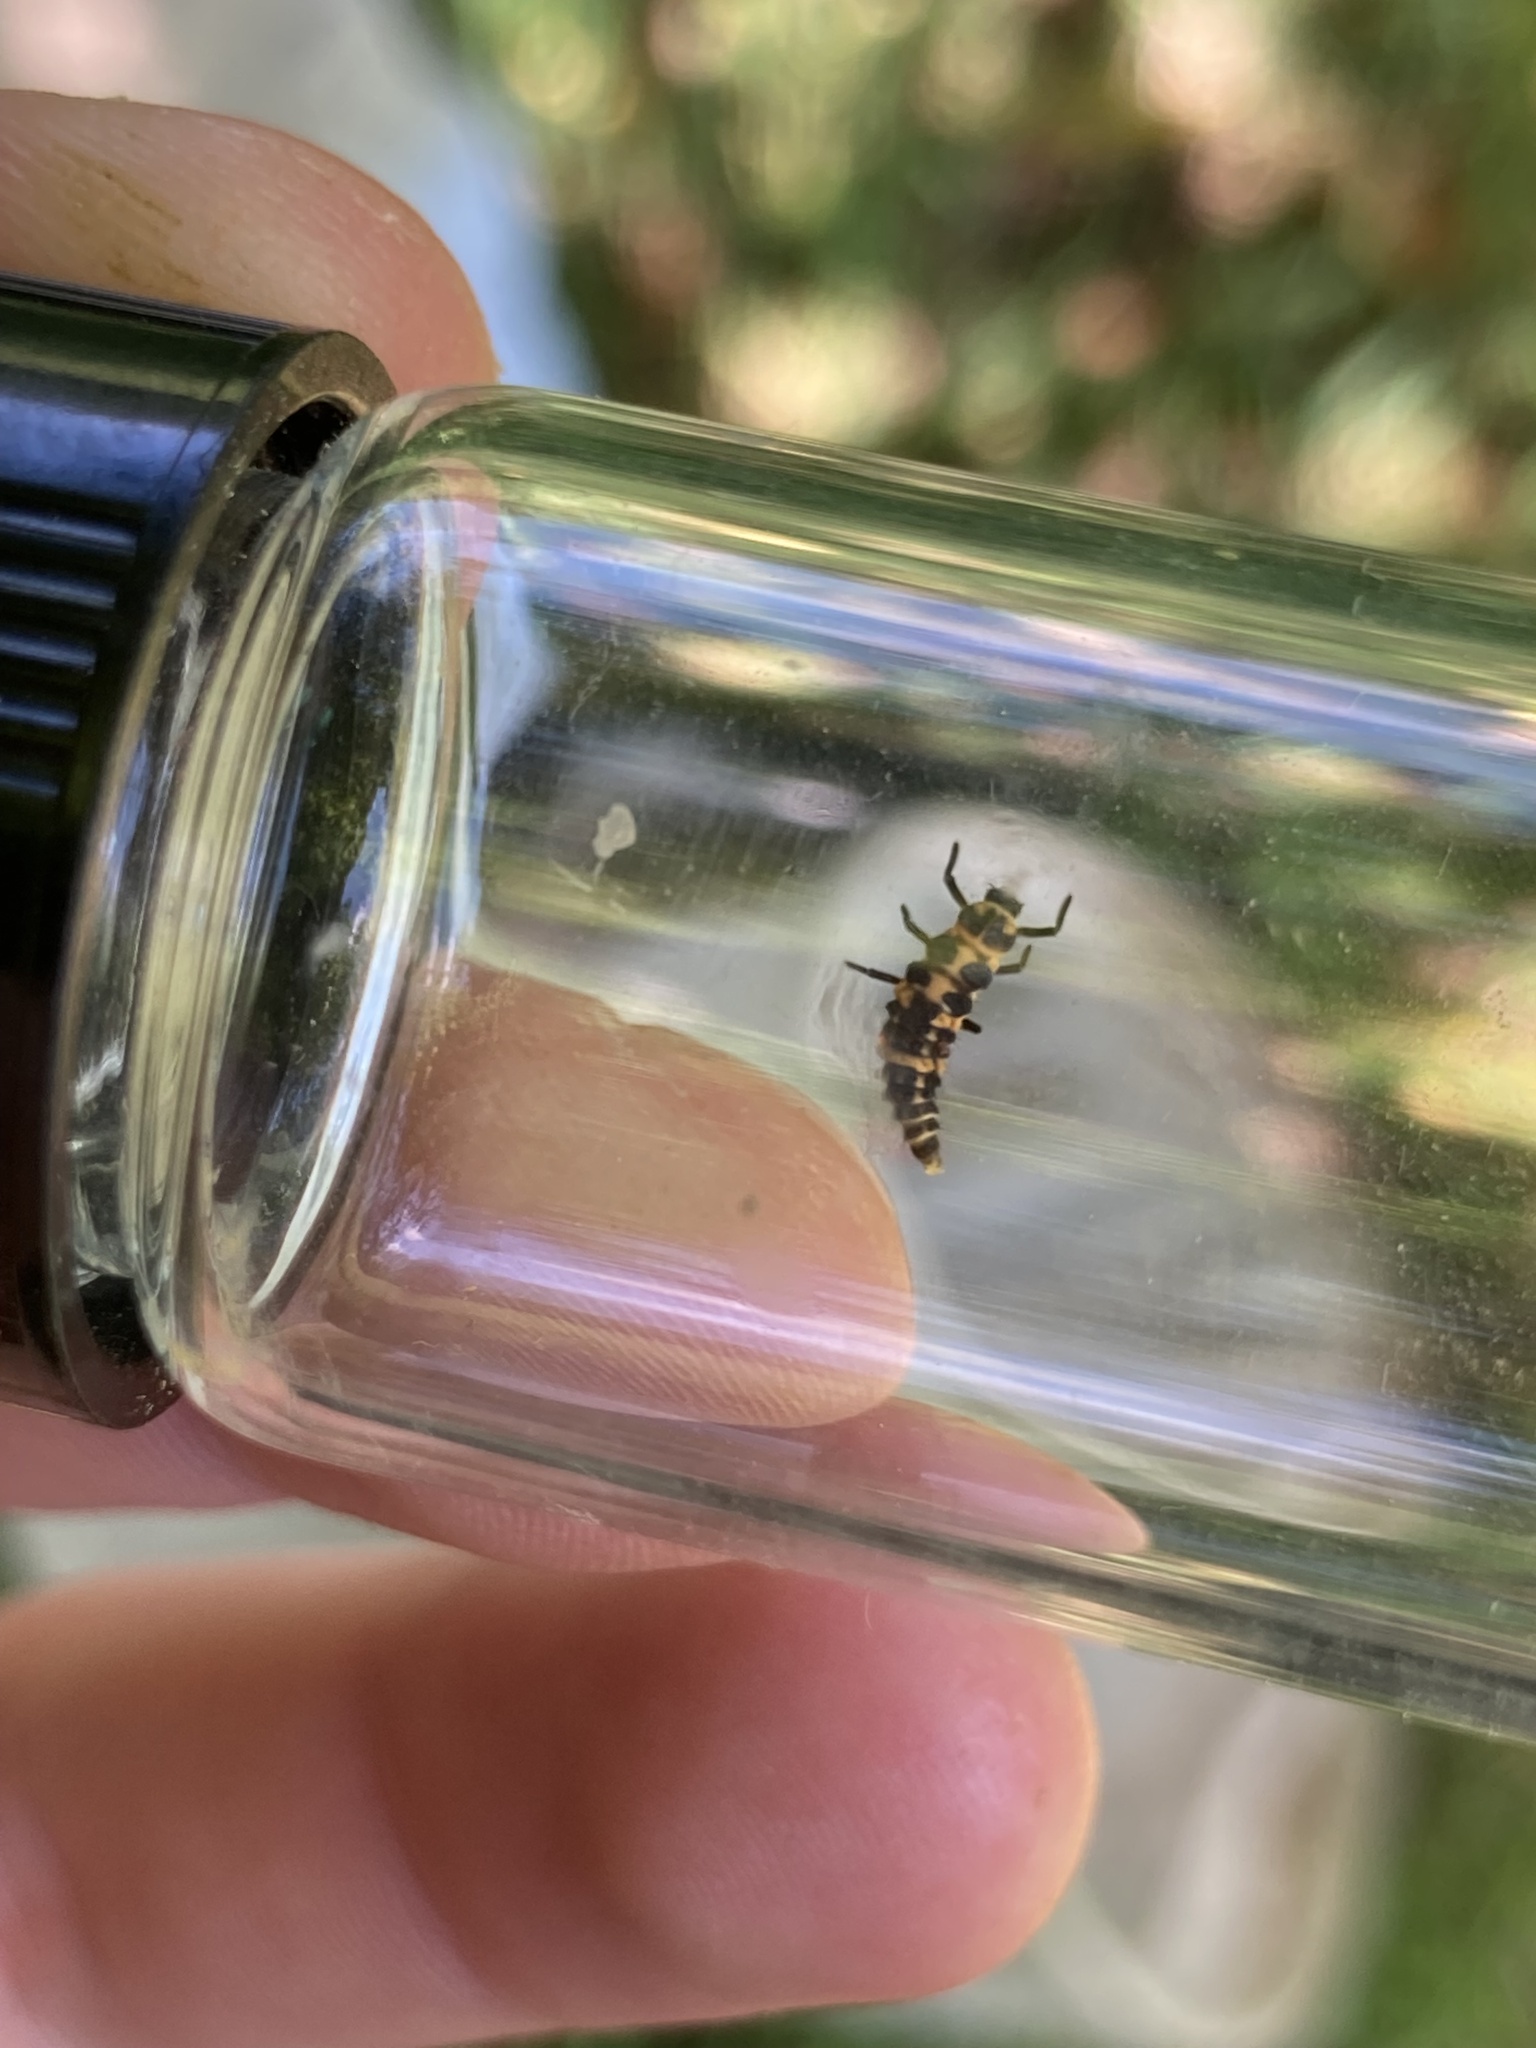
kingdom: Animalia
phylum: Arthropoda
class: Insecta
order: Coleoptera
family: Coccinellidae
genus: Coleomegilla
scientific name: Coleomegilla maculata
